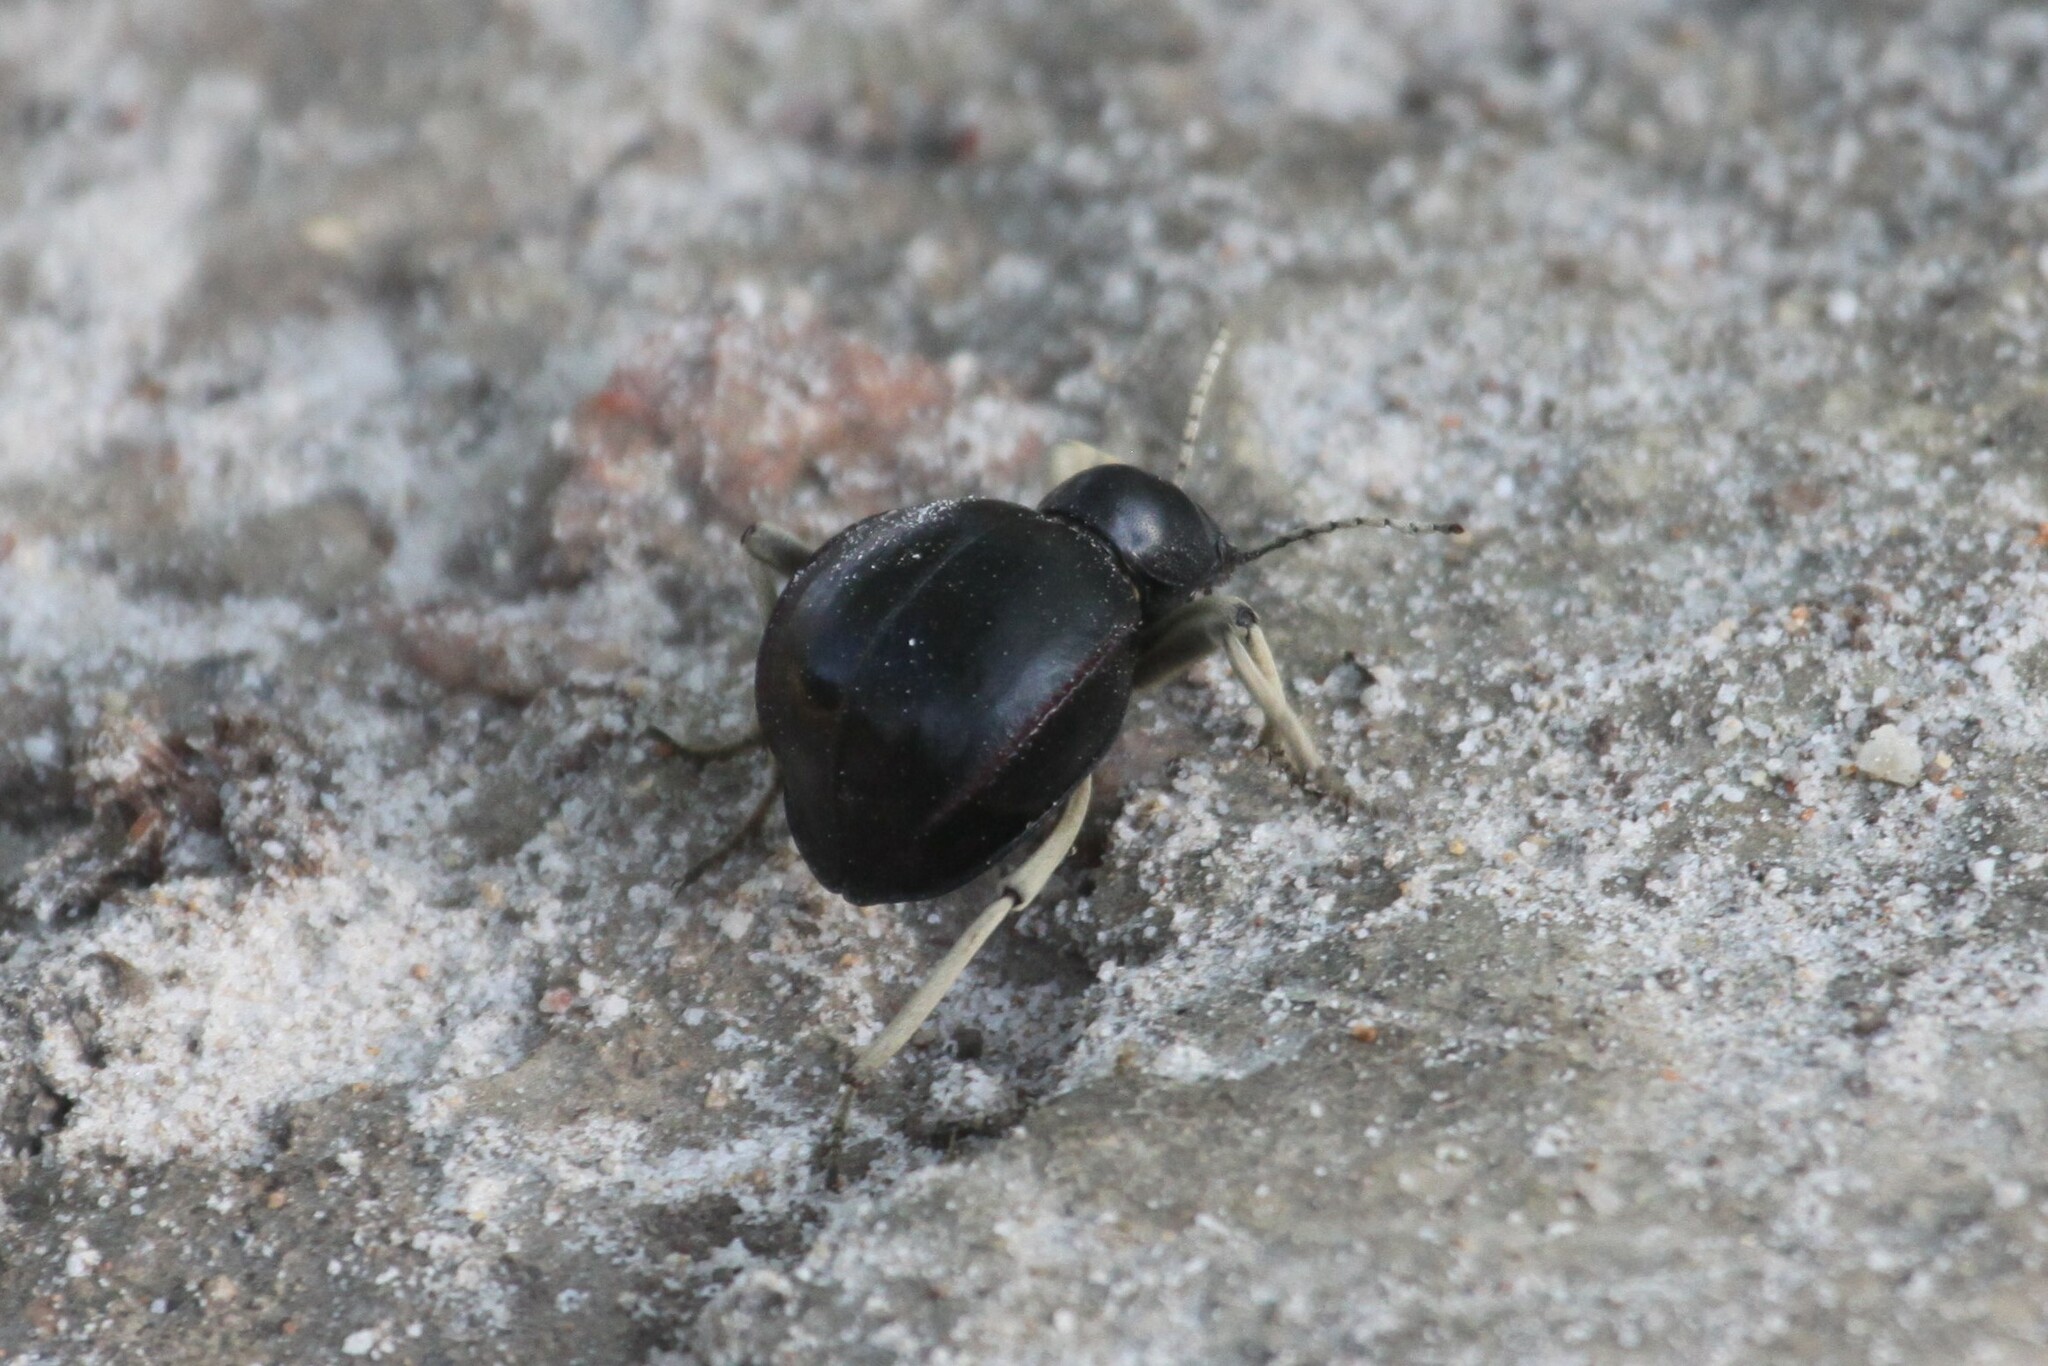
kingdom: Animalia
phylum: Arthropoda
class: Insecta
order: Coleoptera
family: Tenebrionidae
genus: Dichtha
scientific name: Dichtha cubica
